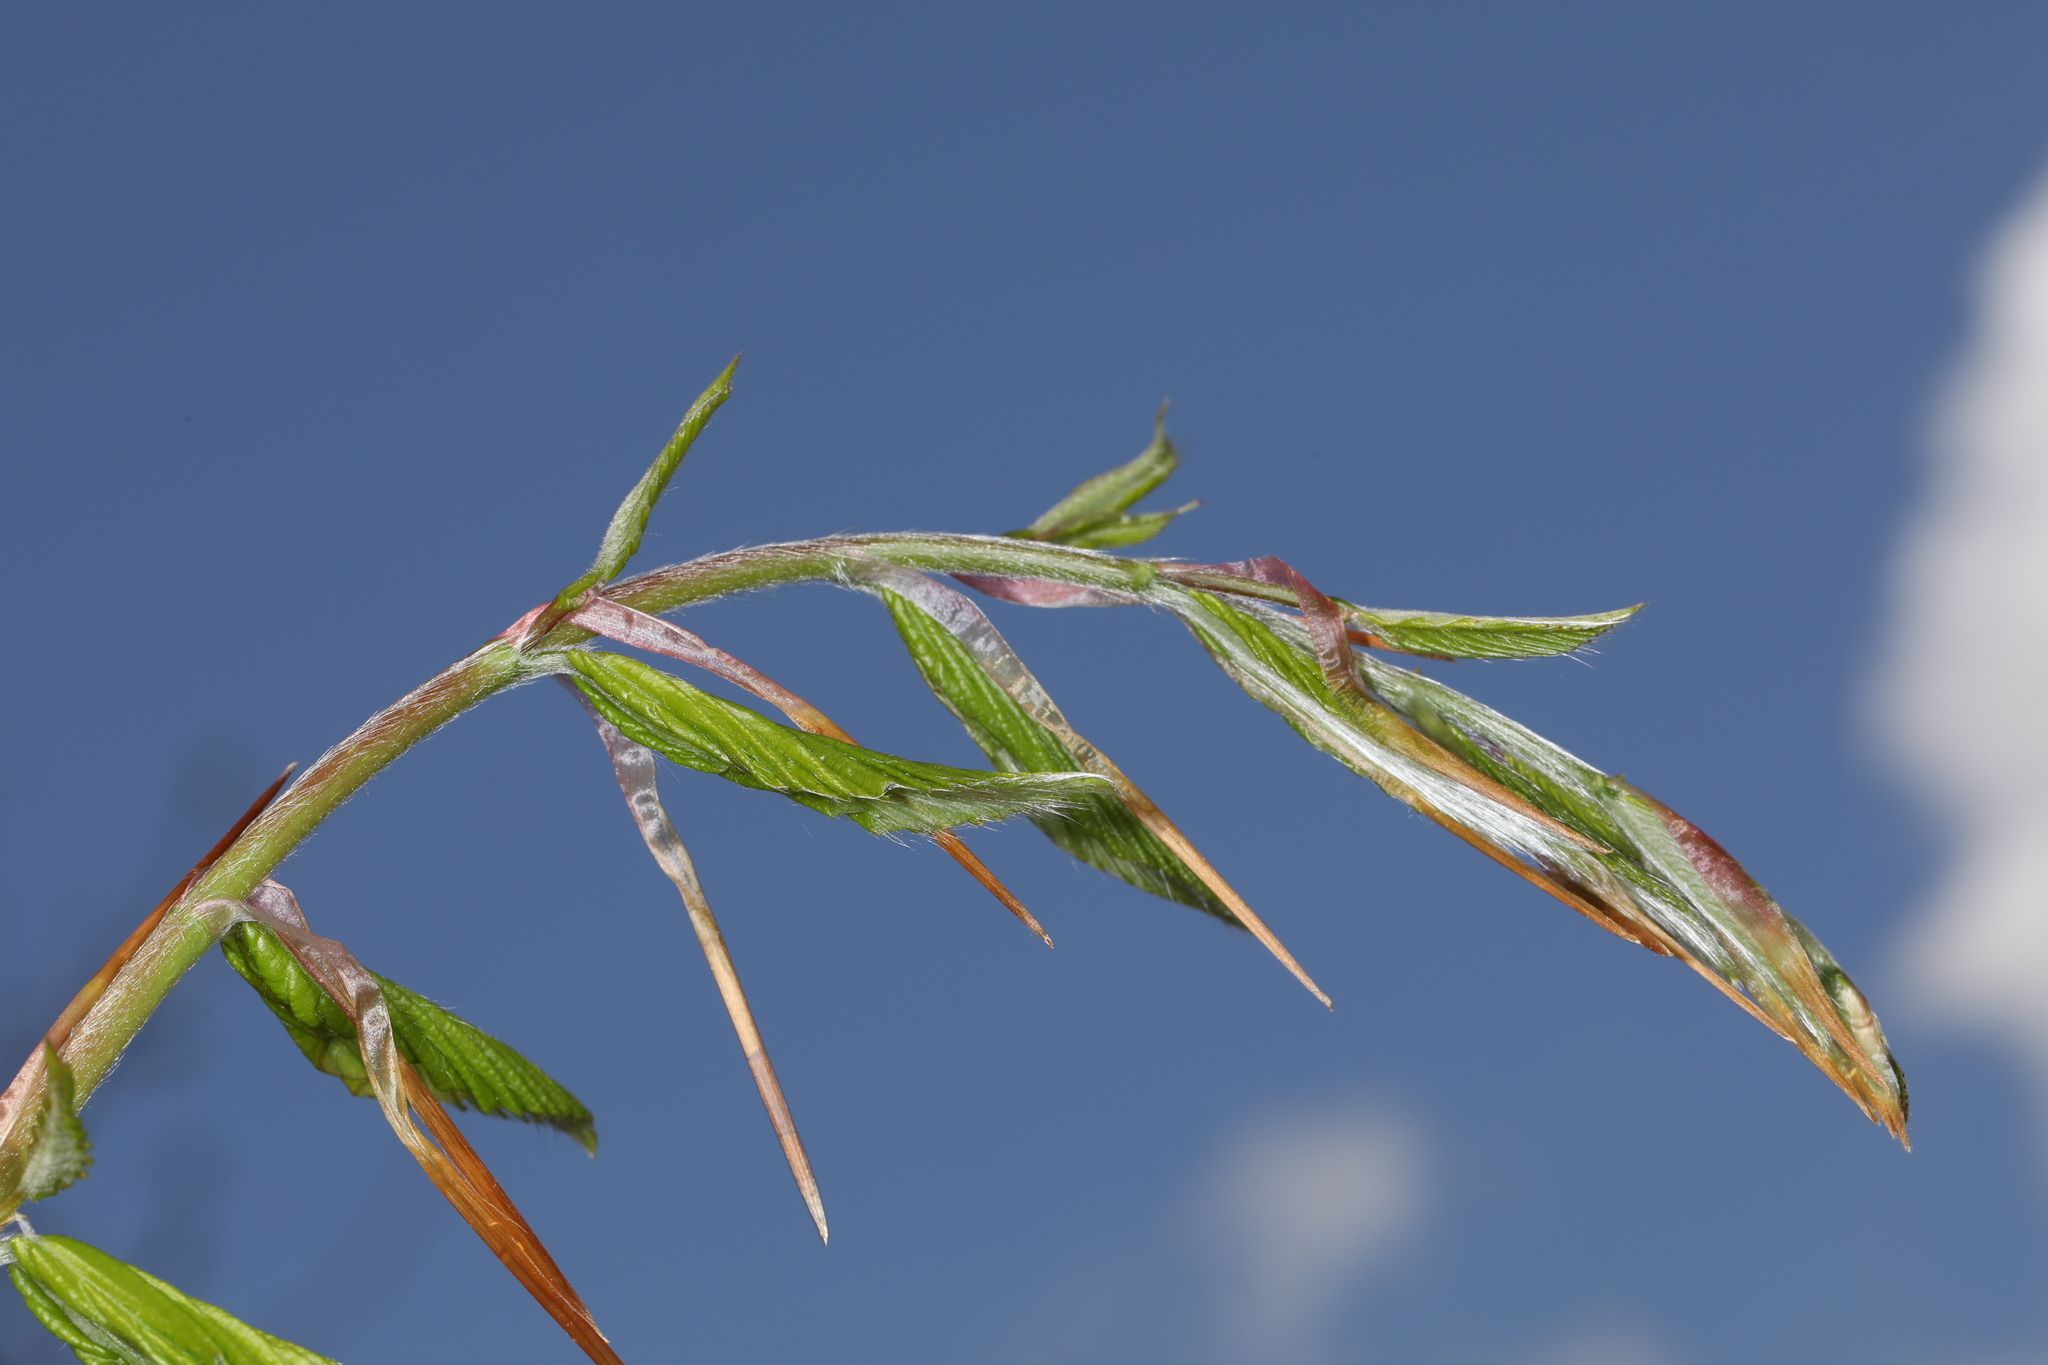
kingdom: Plantae
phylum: Tracheophyta
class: Magnoliopsida
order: Fagales
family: Fagaceae
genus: Fagus
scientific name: Fagus grandifolia
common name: American beech
